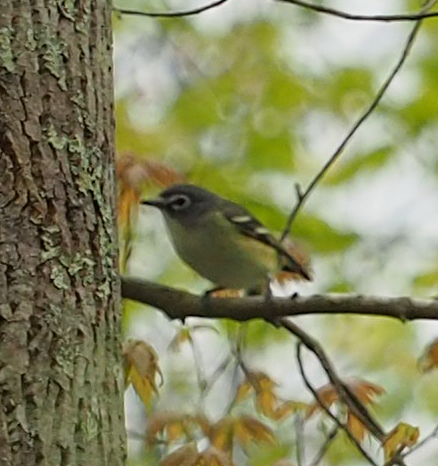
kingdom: Animalia
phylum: Chordata
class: Aves
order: Passeriformes
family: Vireonidae
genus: Vireo
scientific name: Vireo solitarius
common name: Blue-headed vireo
